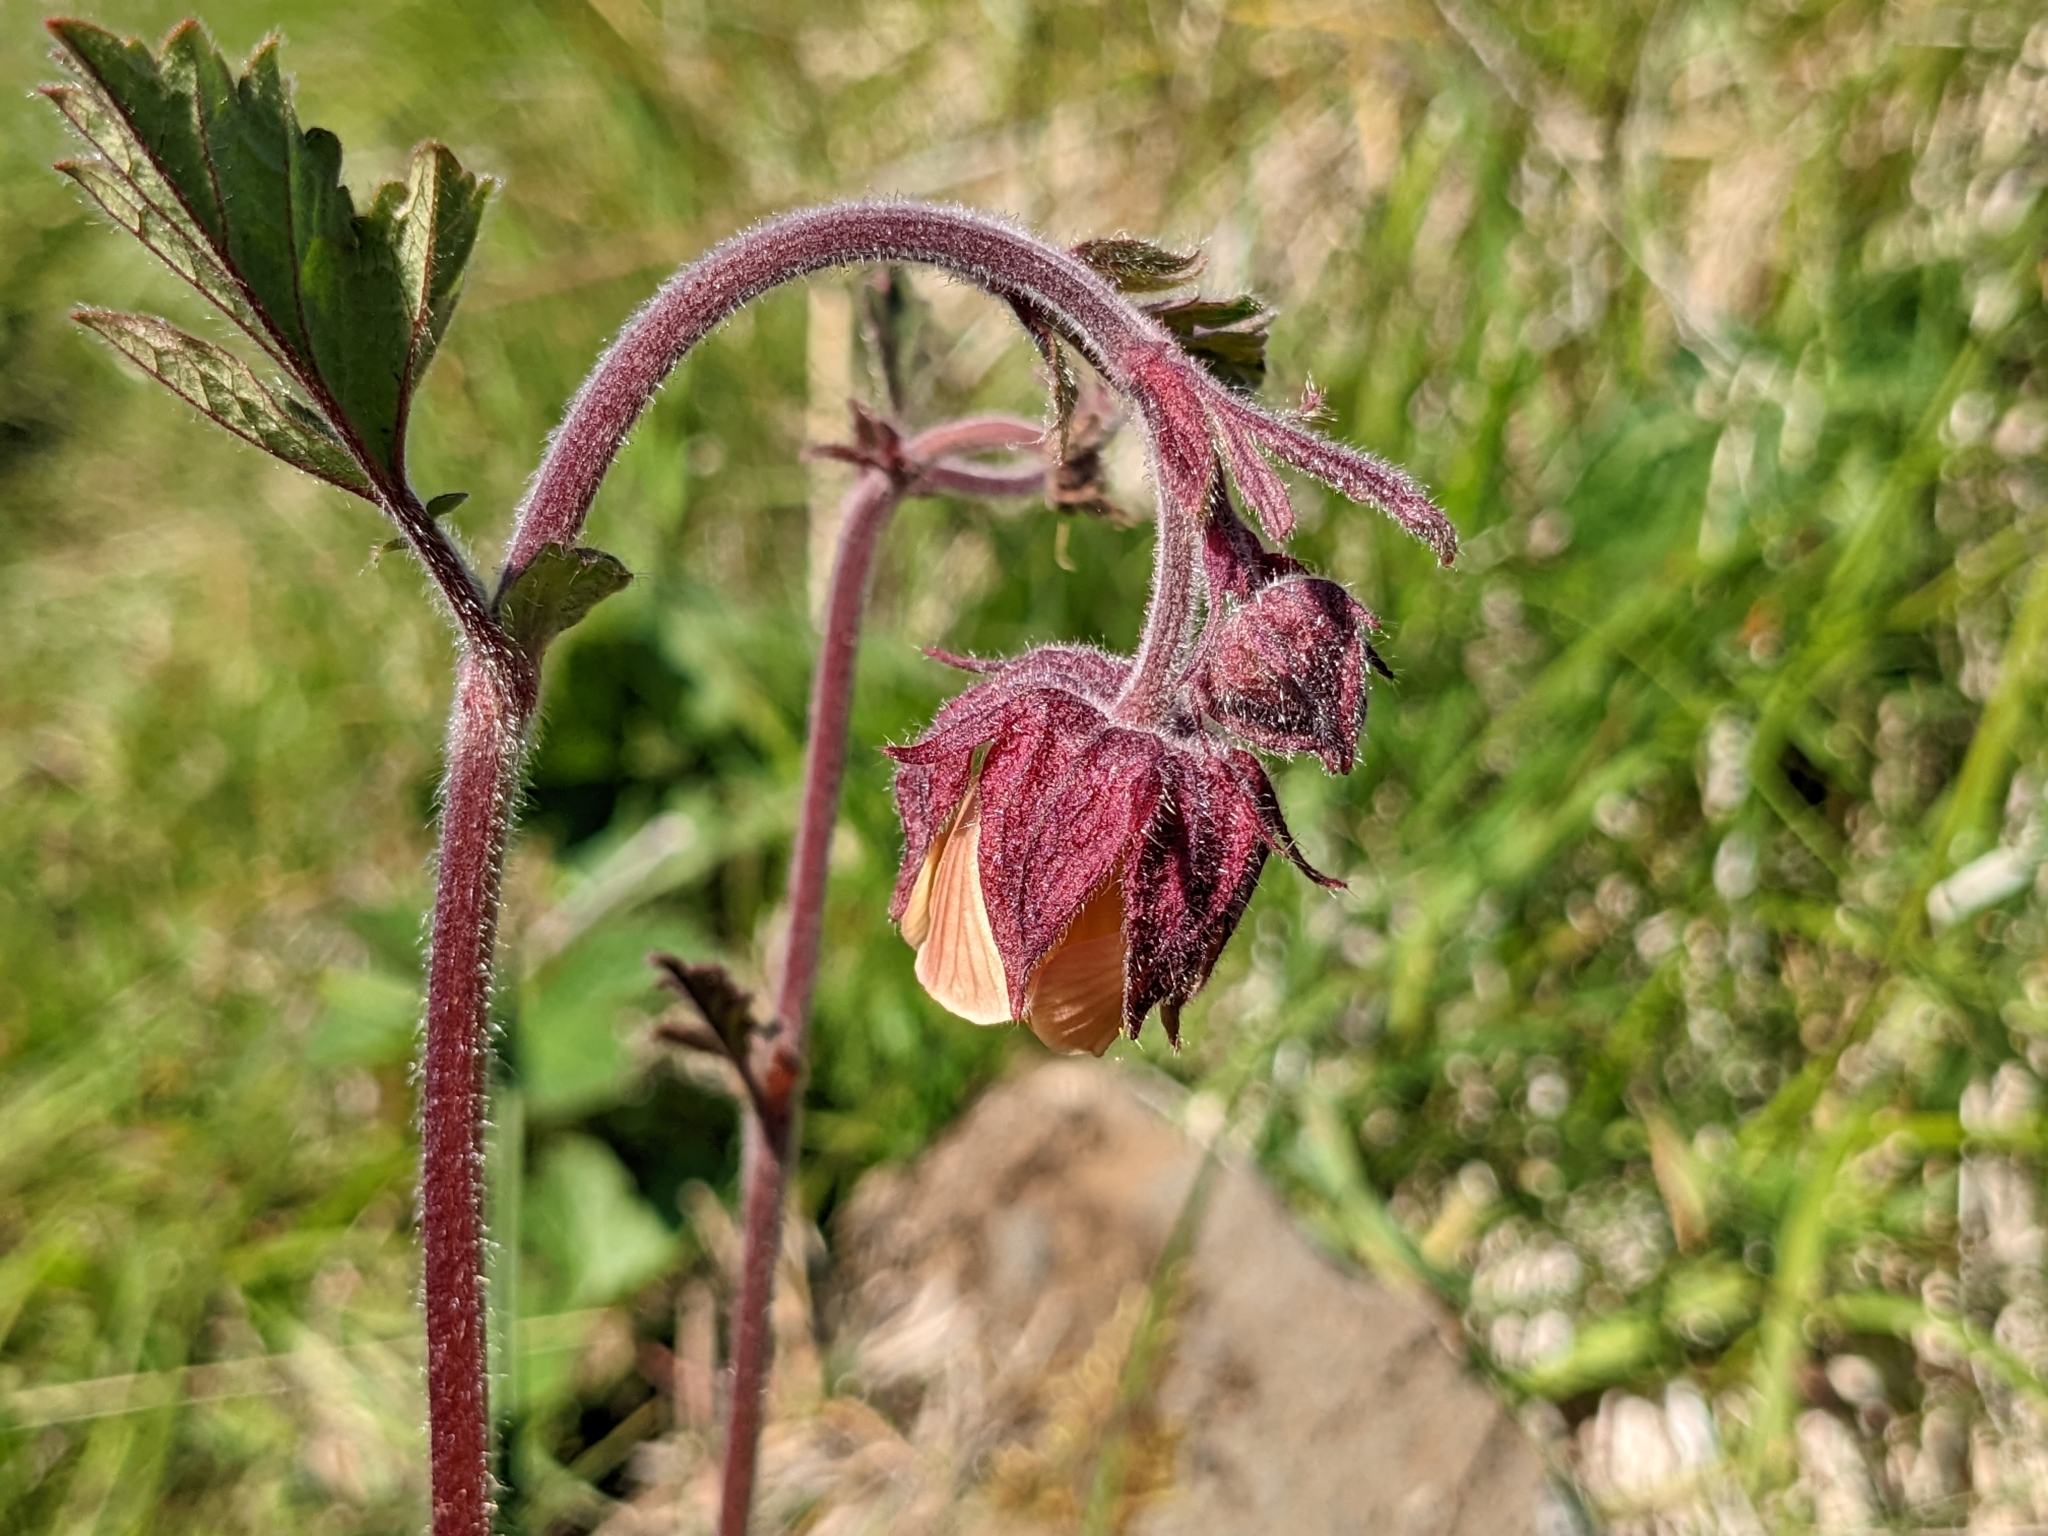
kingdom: Plantae
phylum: Tracheophyta
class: Magnoliopsida
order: Rosales
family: Rosaceae
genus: Geum
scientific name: Geum rivale
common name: Water avens
